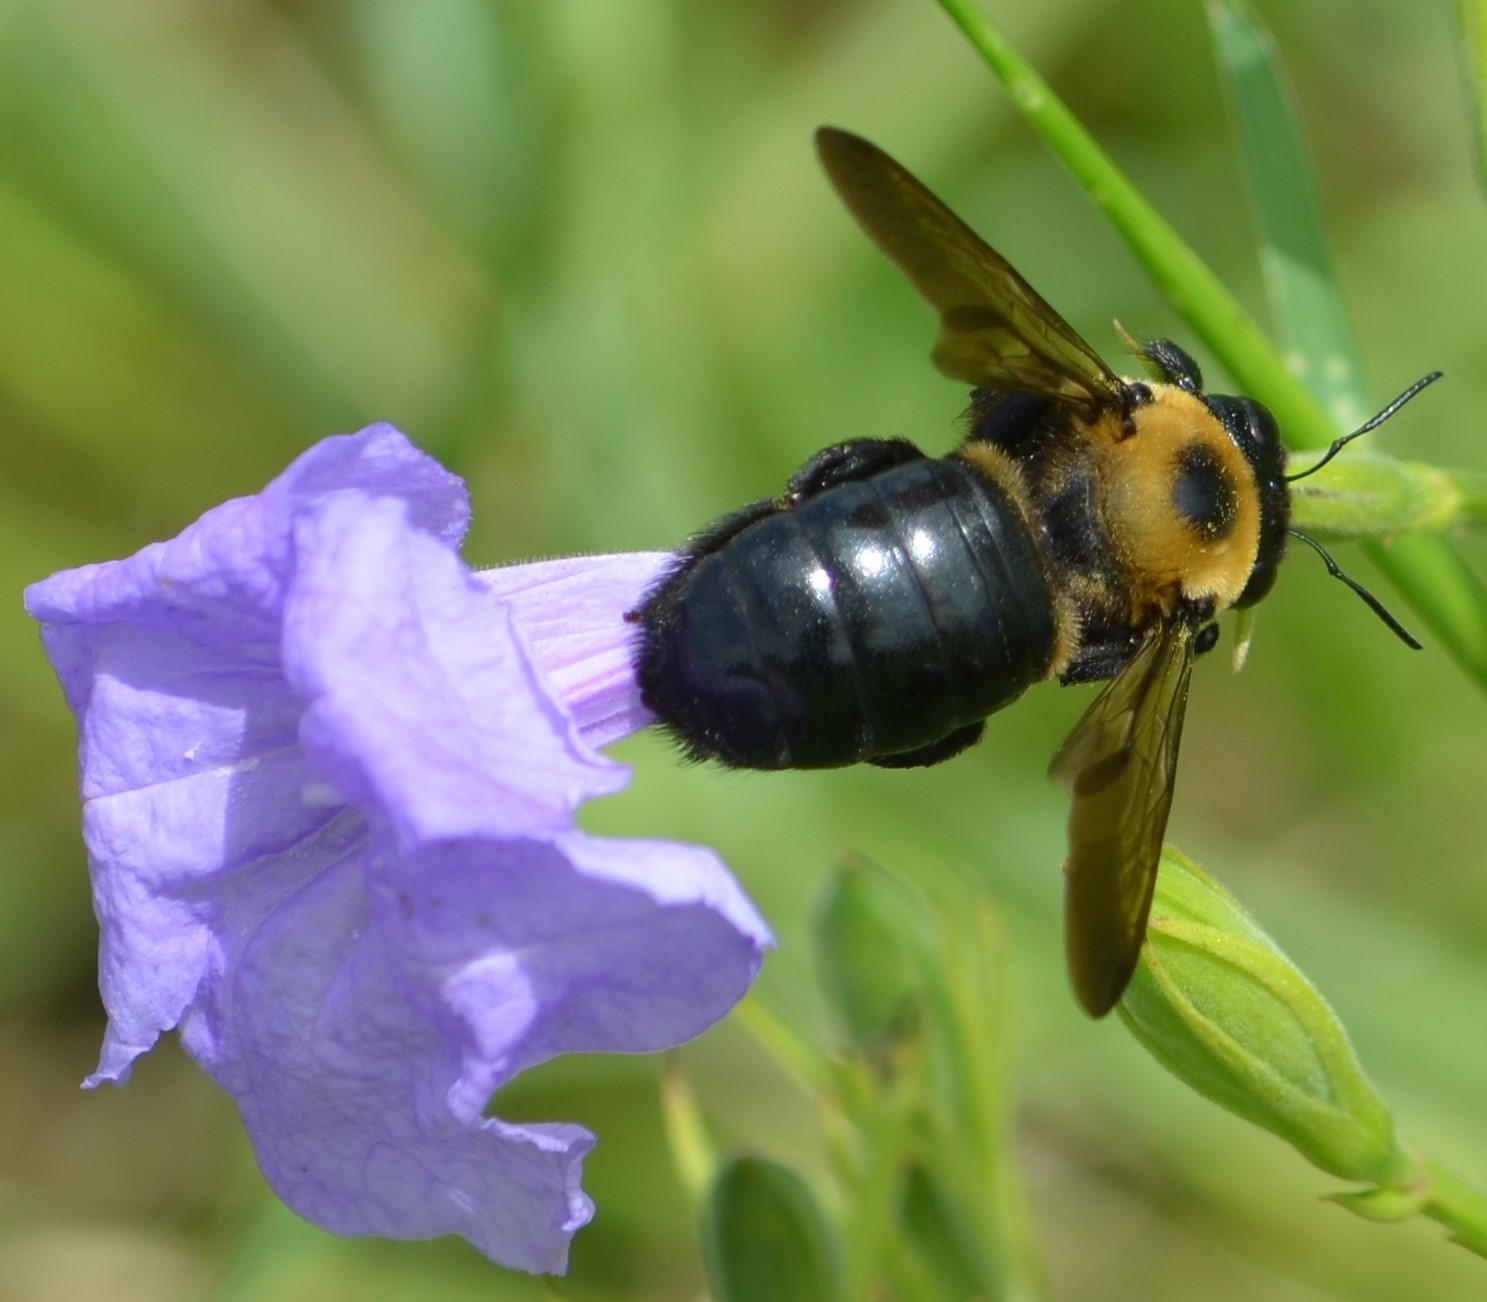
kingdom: Animalia
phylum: Arthropoda
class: Insecta
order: Hymenoptera
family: Apidae
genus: Xylocopa
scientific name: Xylocopa virginica
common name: Carpenter bee
